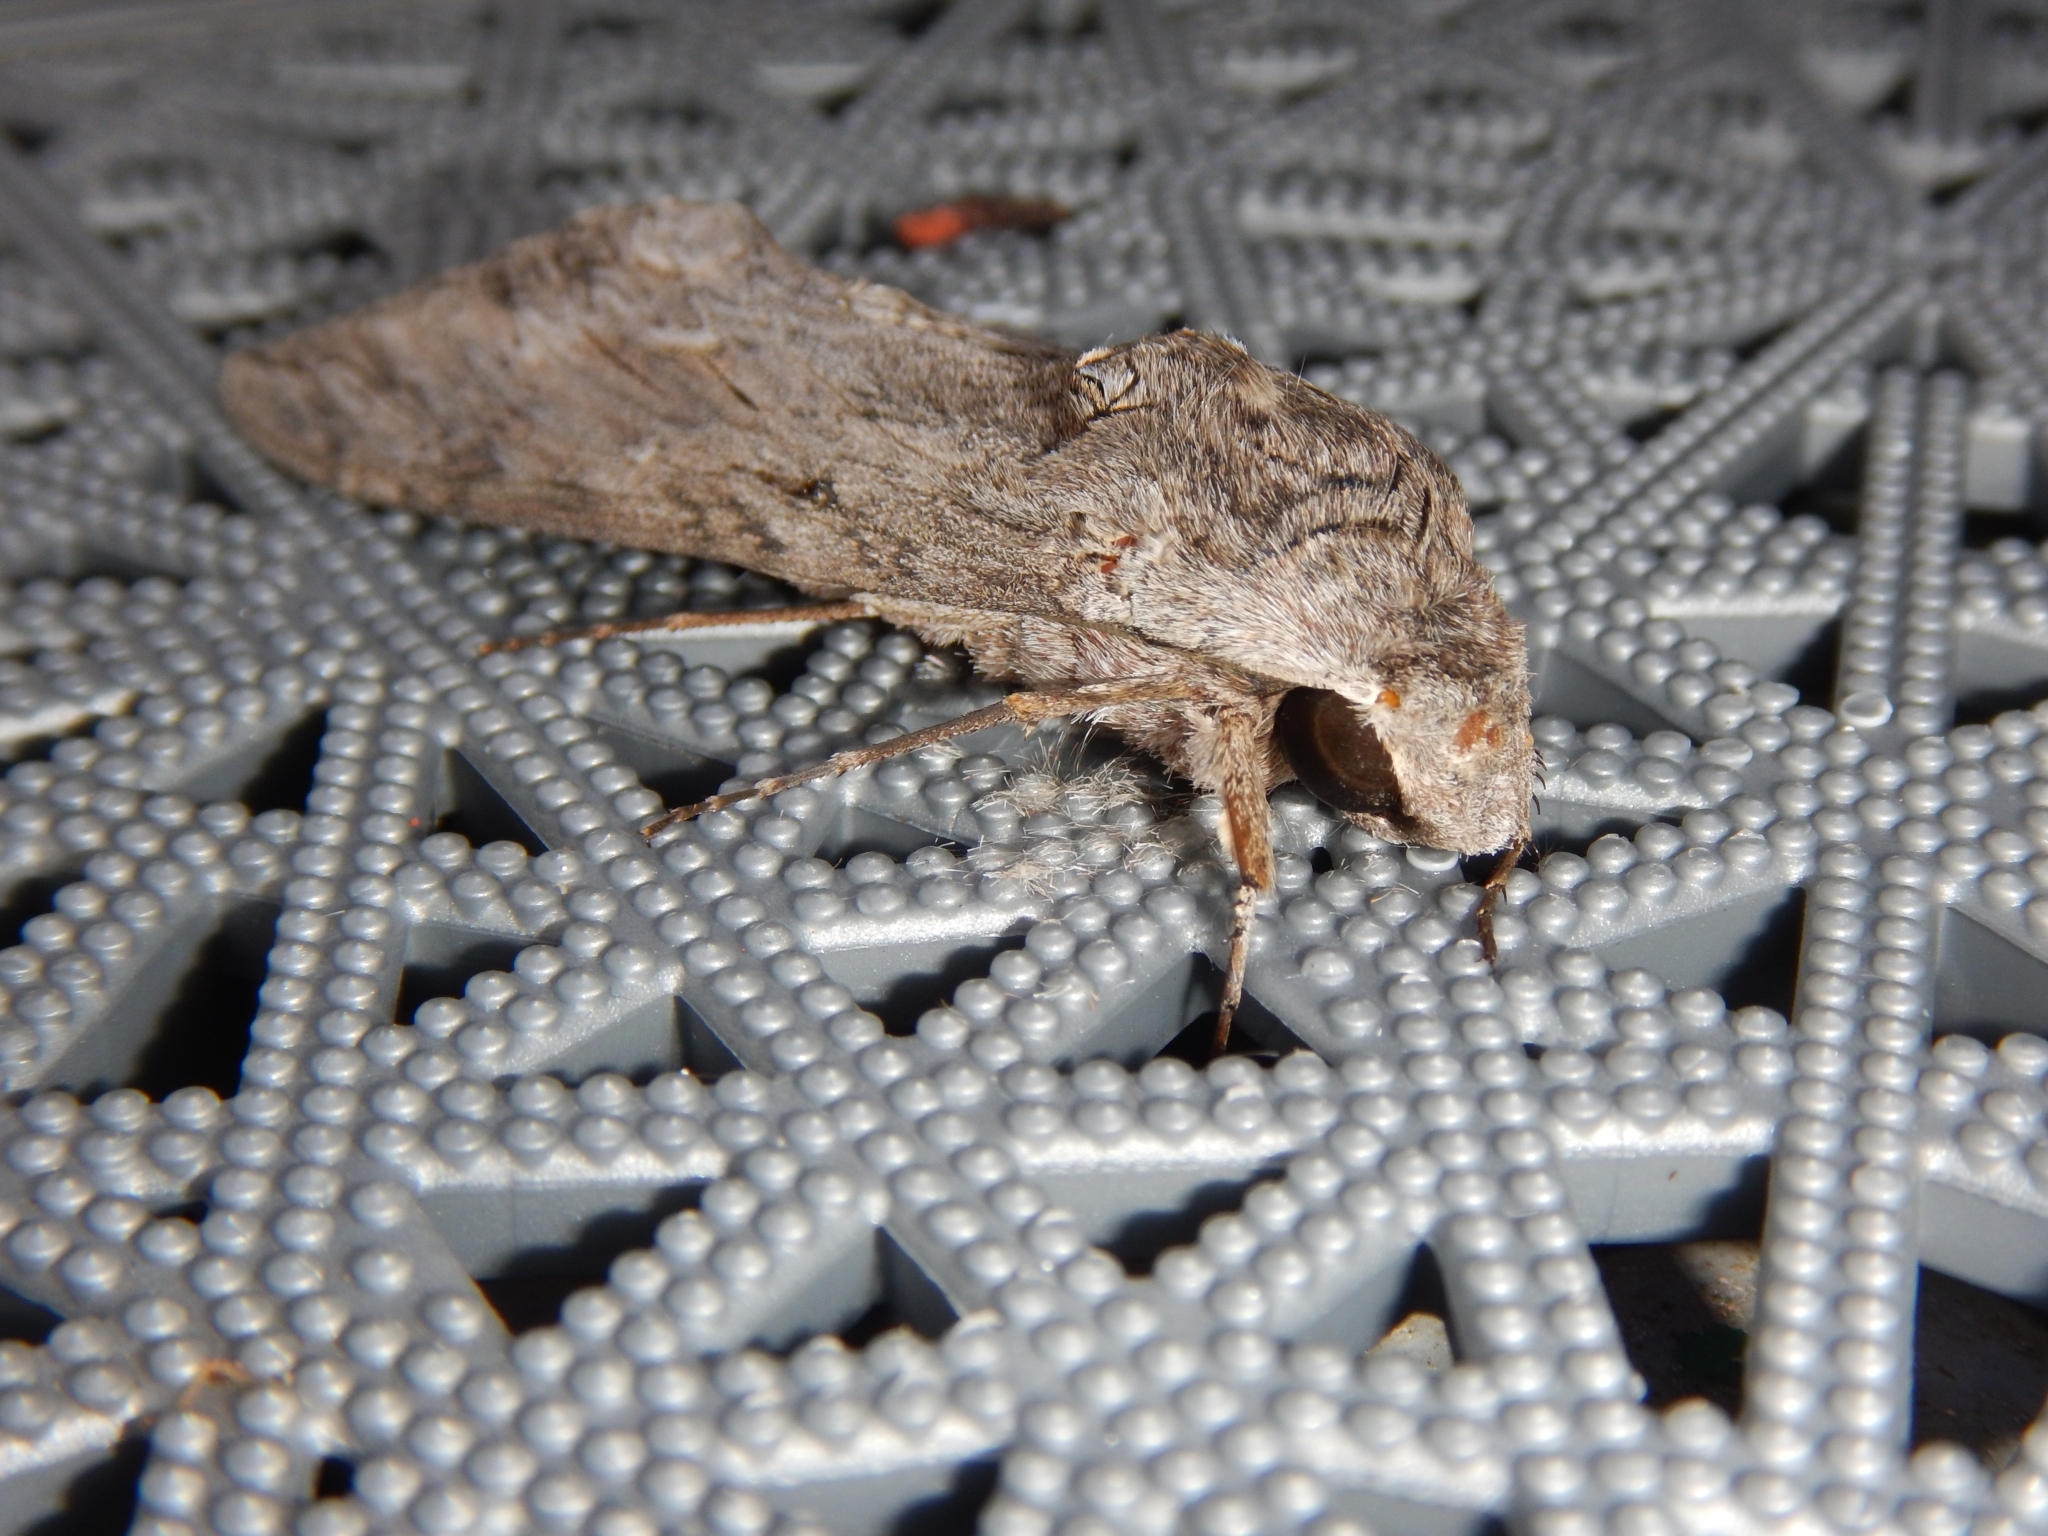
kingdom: Animalia
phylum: Arthropoda
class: Insecta
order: Lepidoptera
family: Sphingidae
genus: Agrius
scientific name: Agrius convolvuli
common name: Convolvulus hawkmoth
